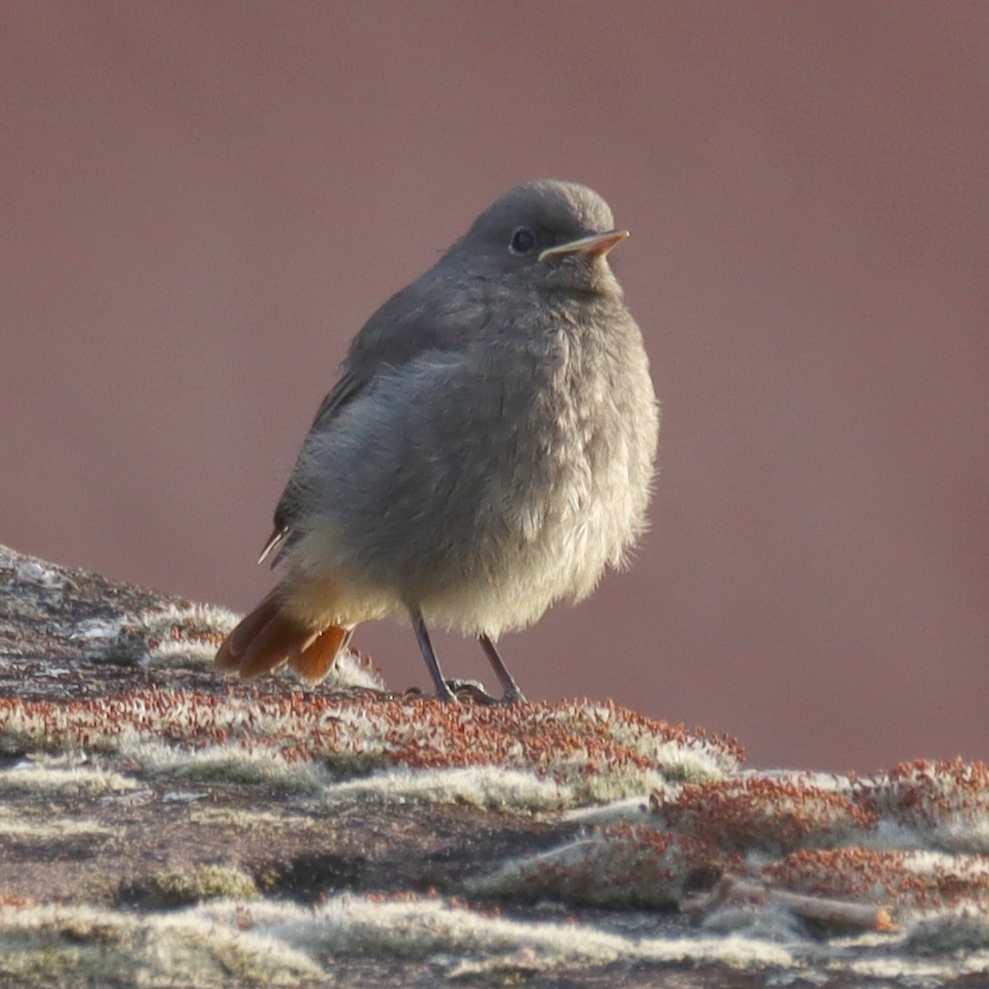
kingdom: Animalia
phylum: Chordata
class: Aves
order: Passeriformes
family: Muscicapidae
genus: Phoenicurus
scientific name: Phoenicurus ochruros
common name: Black redstart
